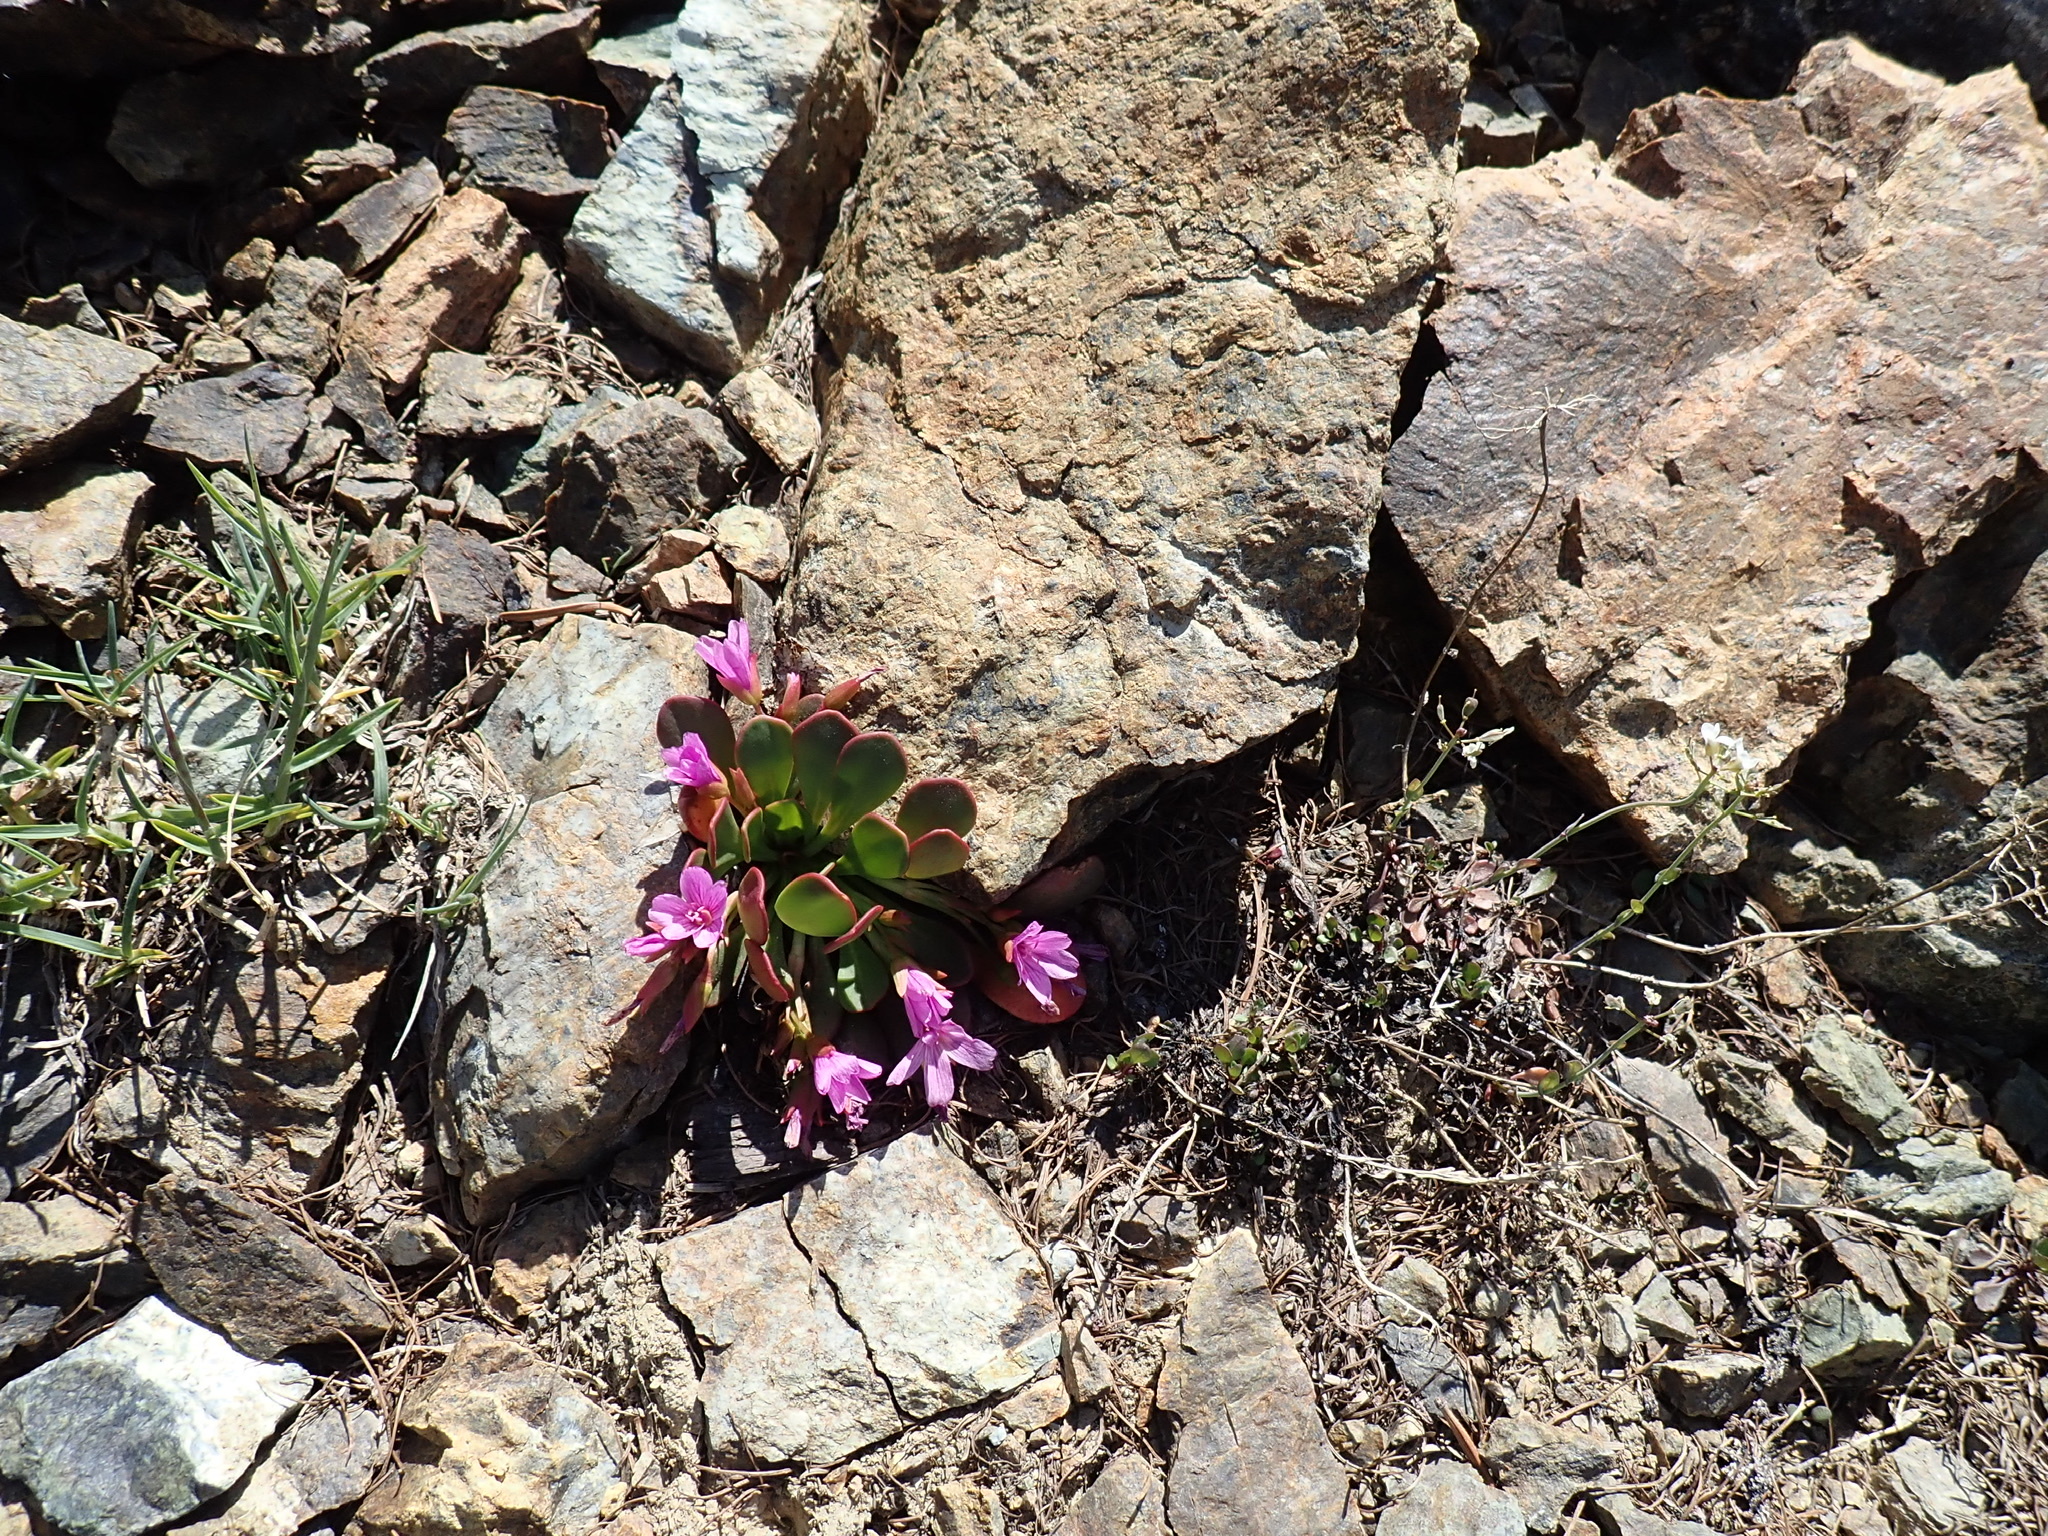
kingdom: Plantae
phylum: Tracheophyta
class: Magnoliopsida
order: Caryophyllales
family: Montiaceae
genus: Claytonia
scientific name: Claytonia megarhiza
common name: Alpine spring beauty
